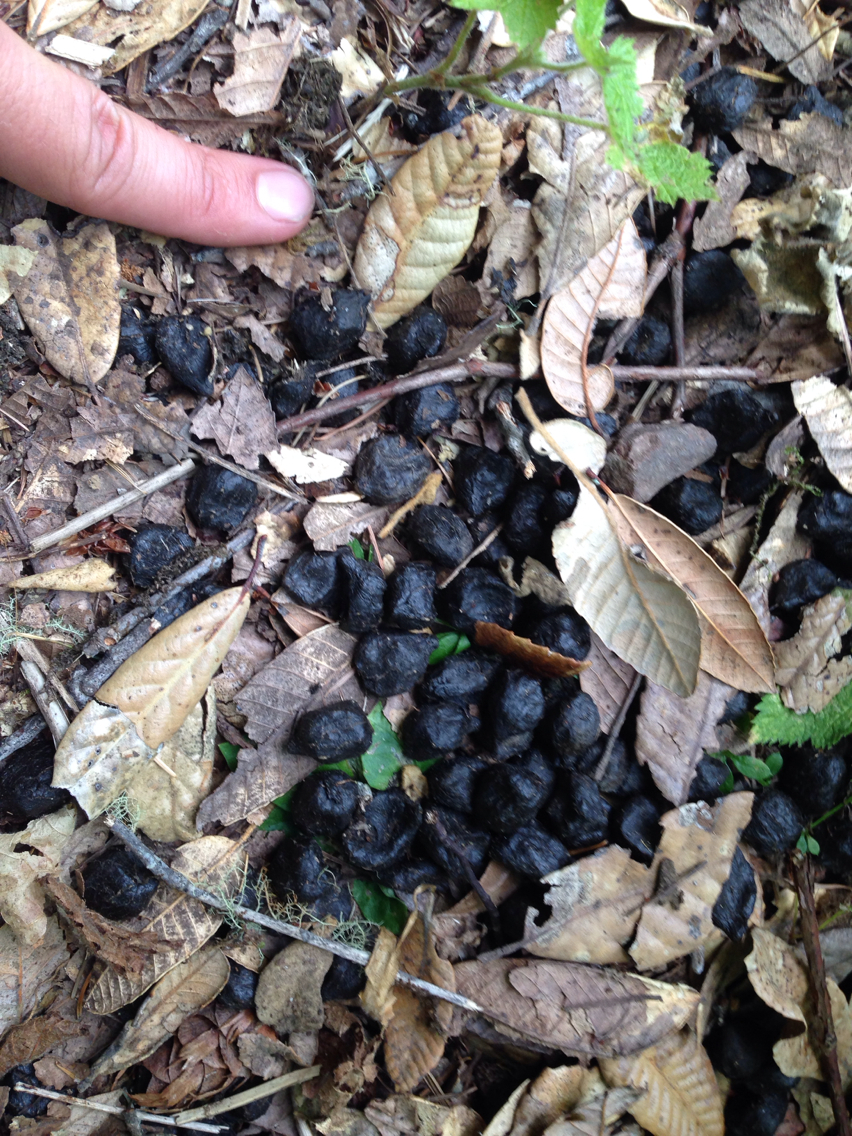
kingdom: Animalia
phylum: Chordata
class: Mammalia
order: Artiodactyla
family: Cervidae
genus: Cervus
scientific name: Cervus elaphus
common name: Red deer
